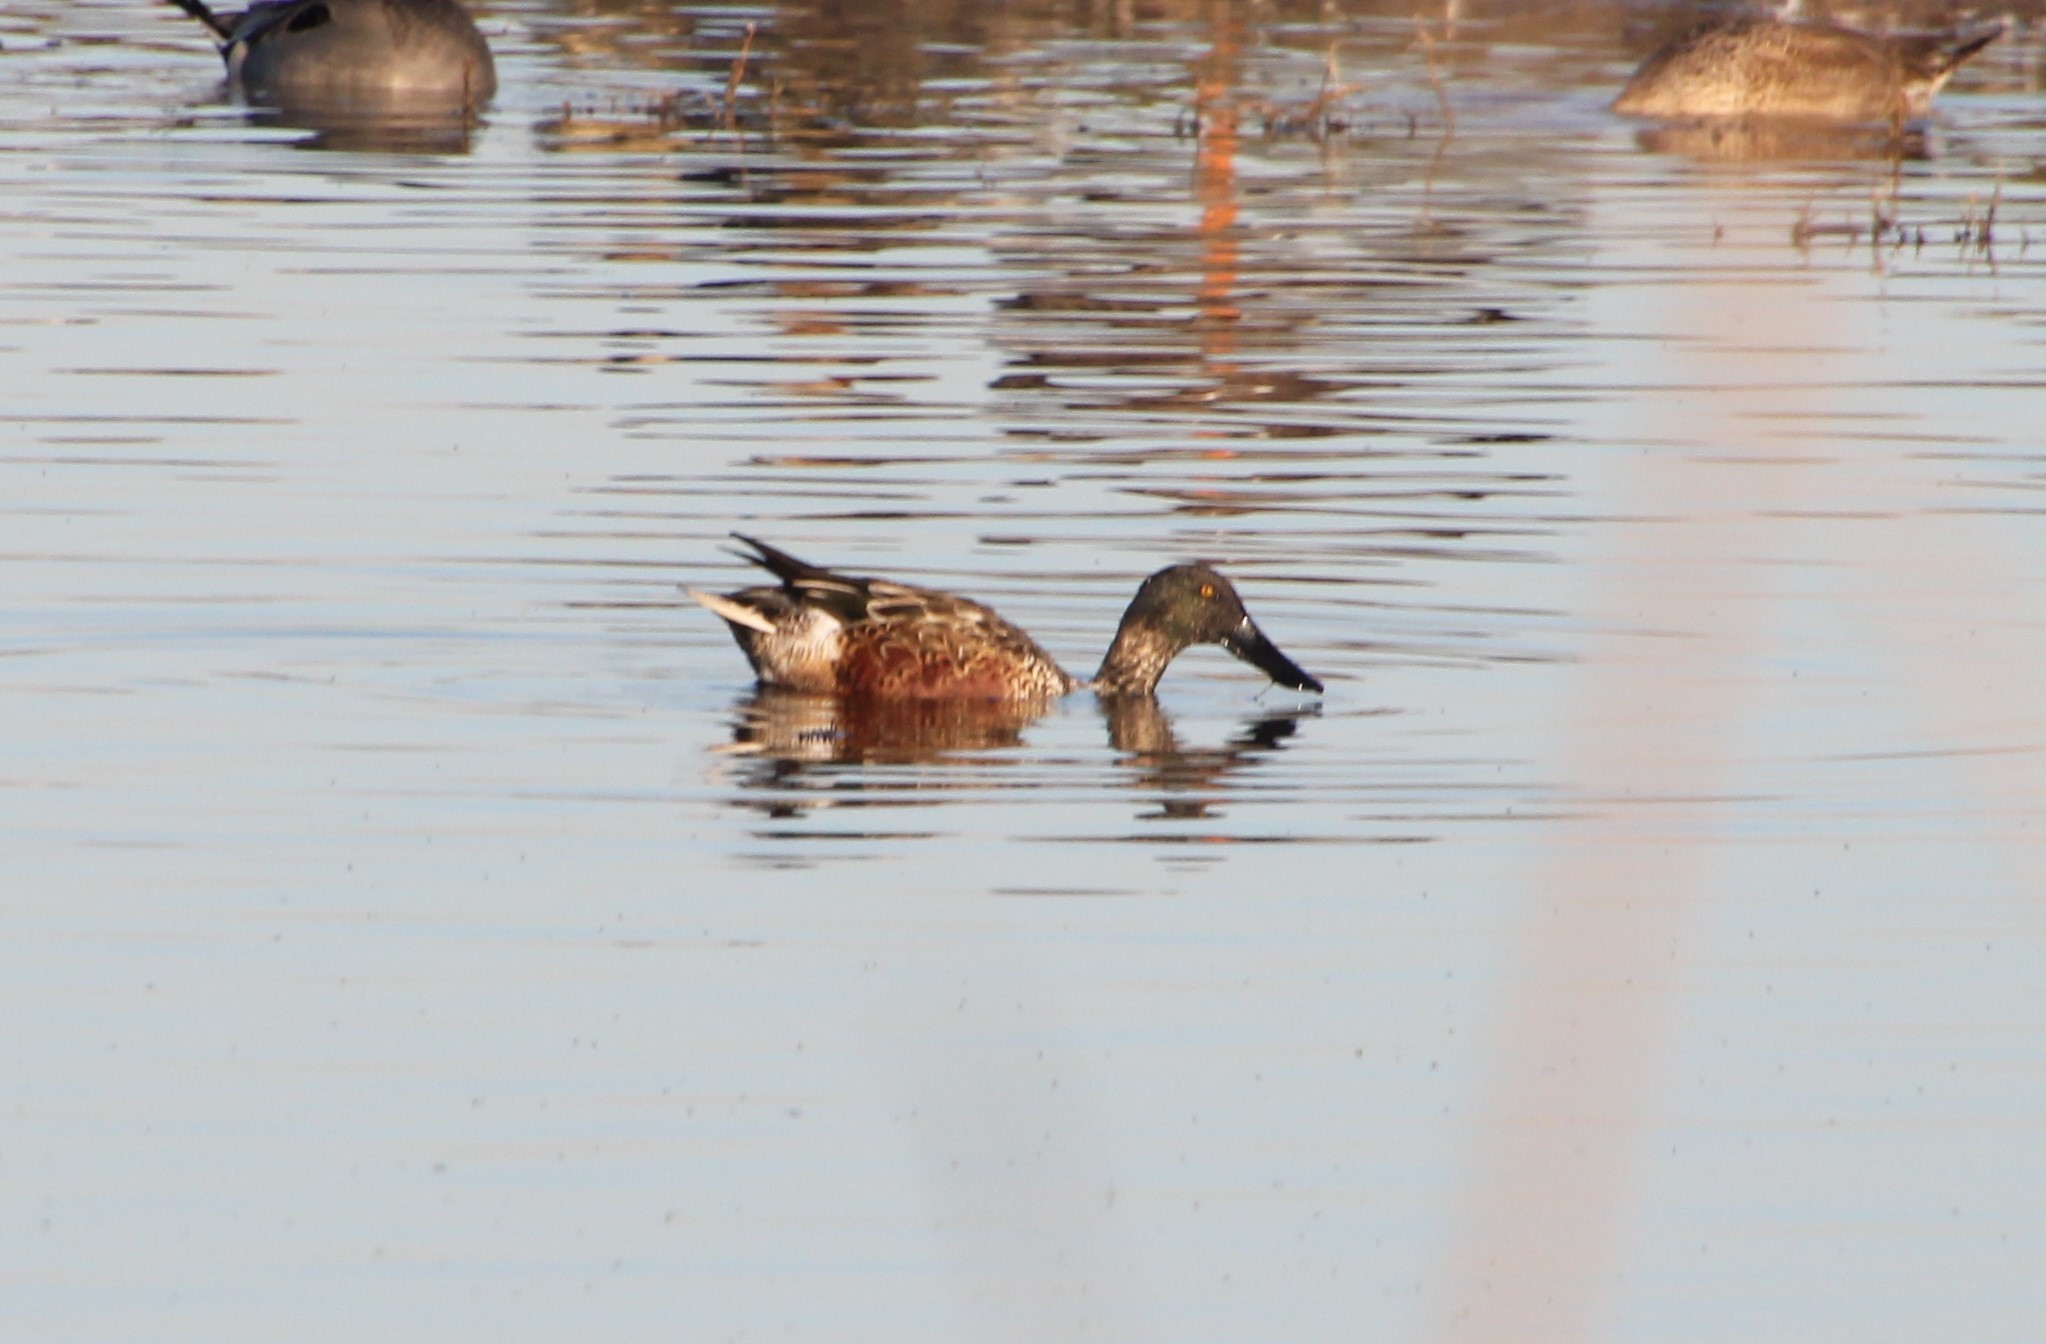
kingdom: Animalia
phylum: Chordata
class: Aves
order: Anseriformes
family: Anatidae
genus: Spatula
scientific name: Spatula clypeata
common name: Northern shoveler
